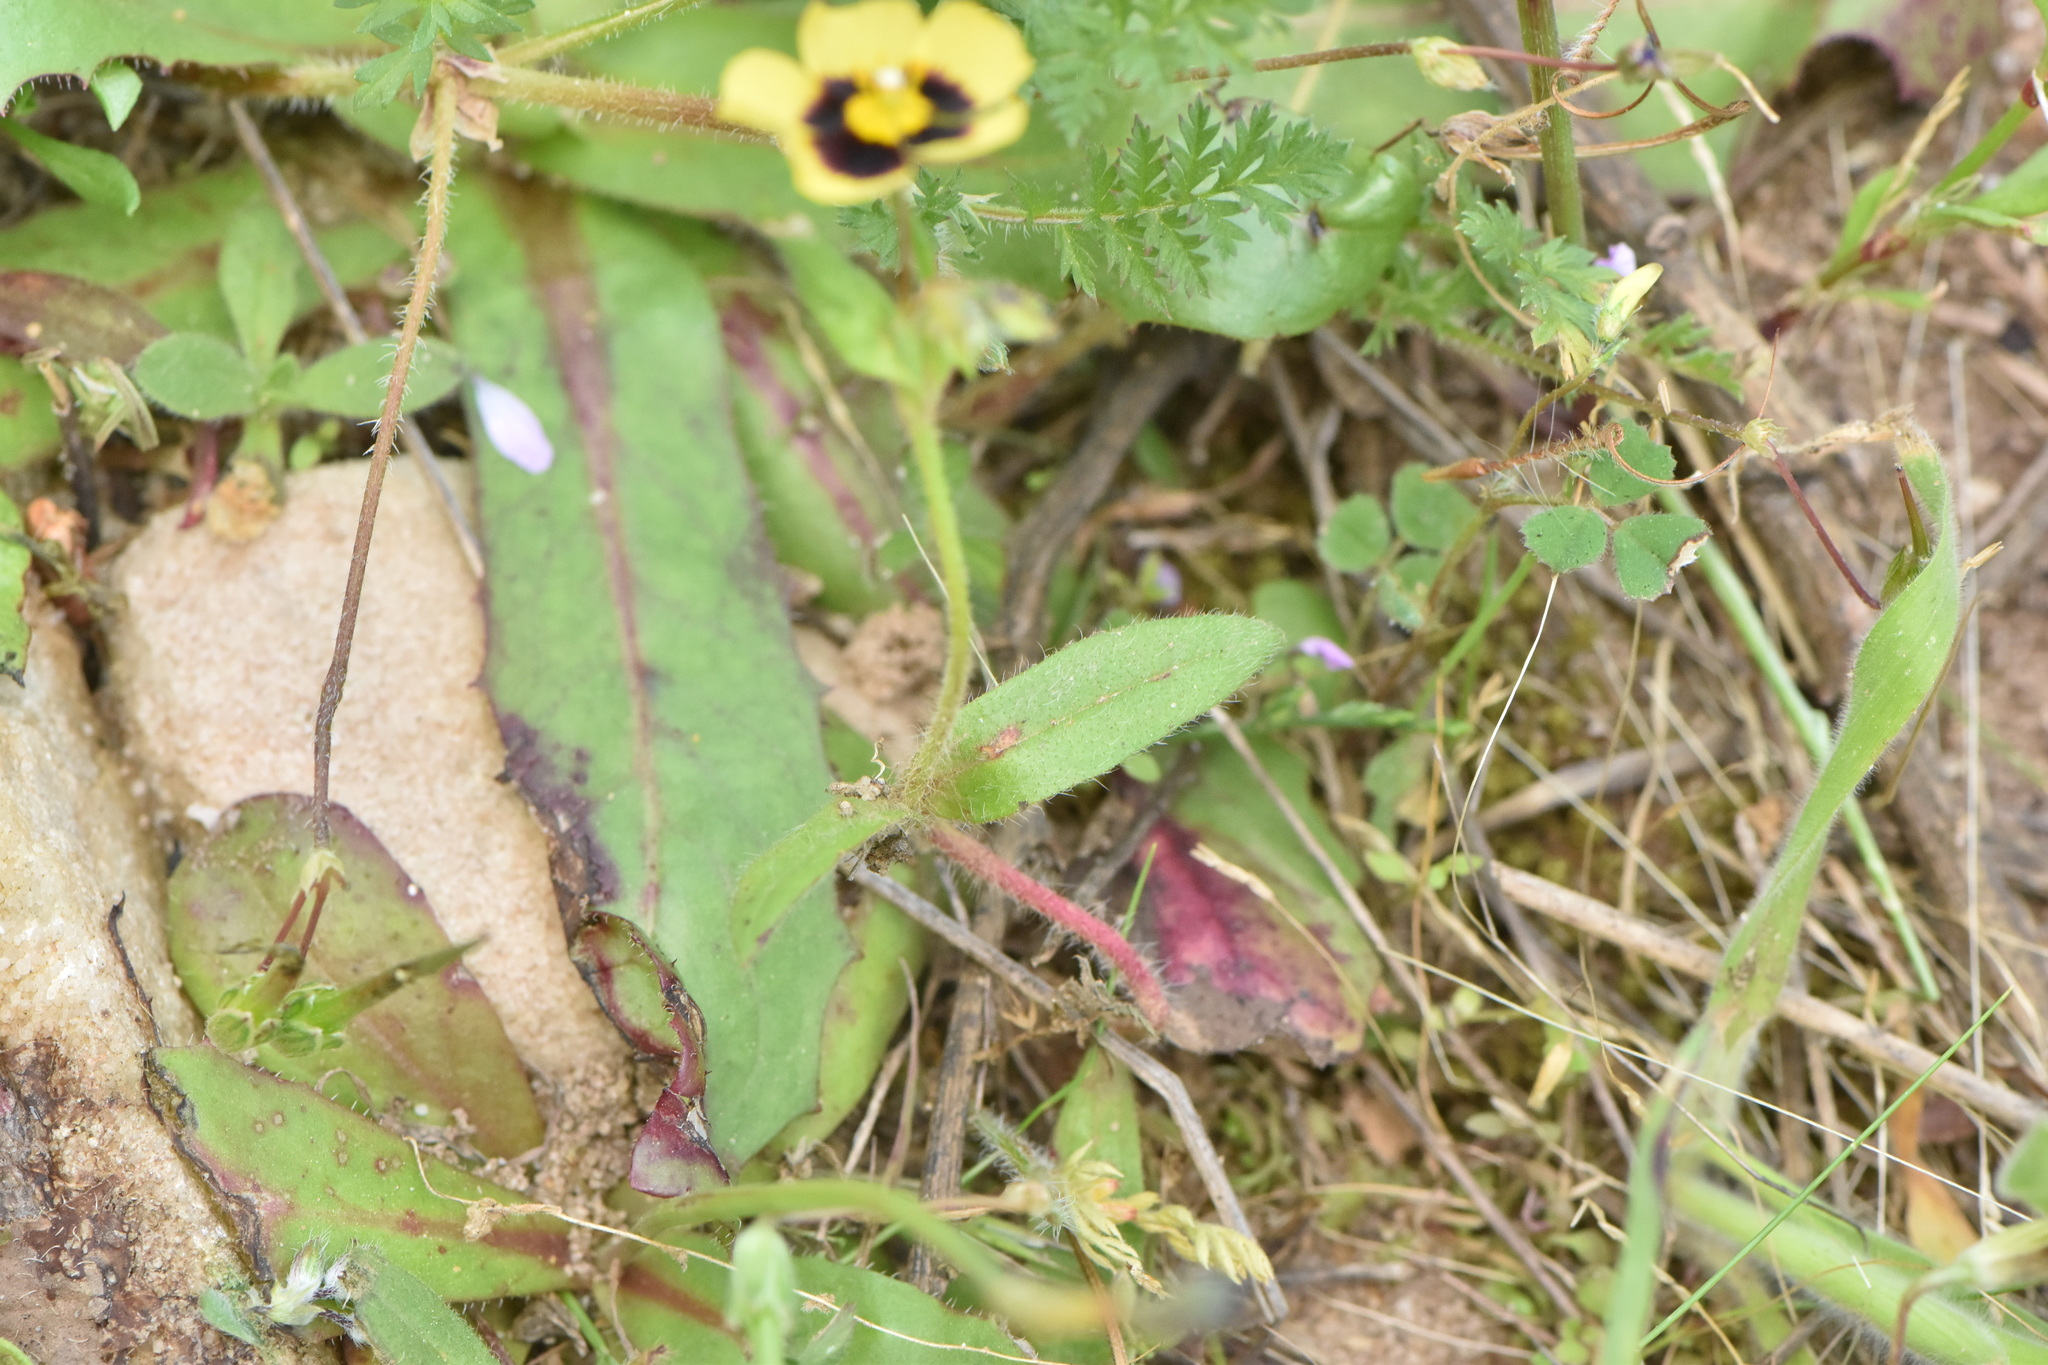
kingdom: Plantae
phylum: Tracheophyta
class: Magnoliopsida
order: Malvales
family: Cistaceae
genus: Tuberaria
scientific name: Tuberaria guttata
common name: Spotted rock-rose
